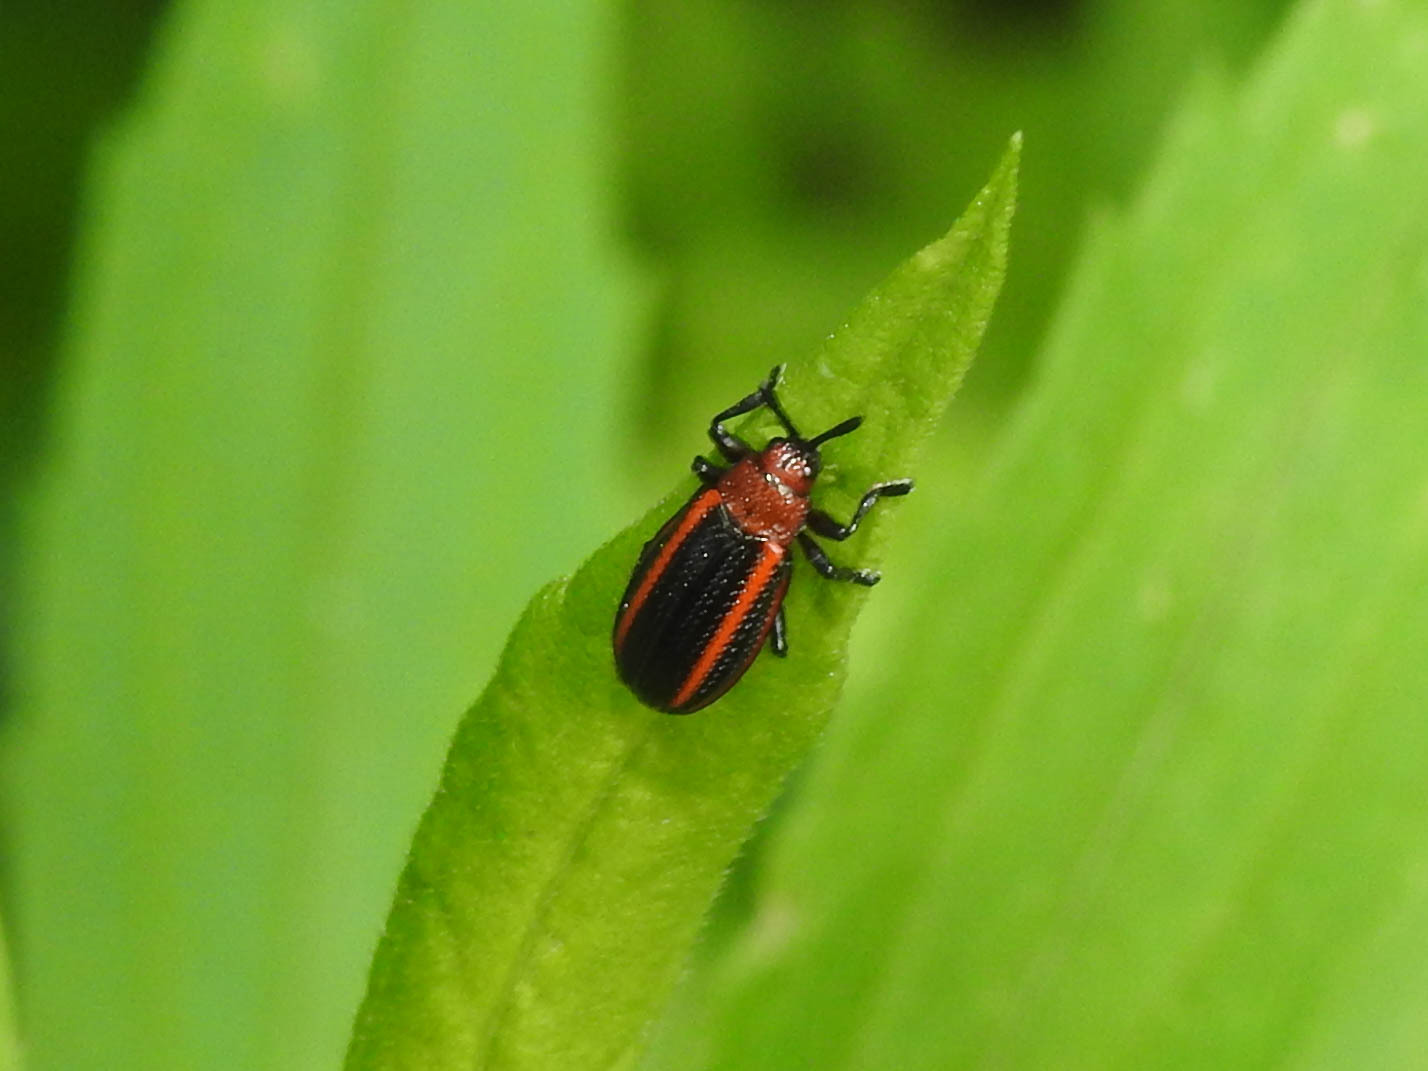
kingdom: Animalia
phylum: Arthropoda
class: Insecta
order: Coleoptera
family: Chrysomelidae
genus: Microrhopala
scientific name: Microrhopala vittata
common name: Goldenrod leaf miner beetle
